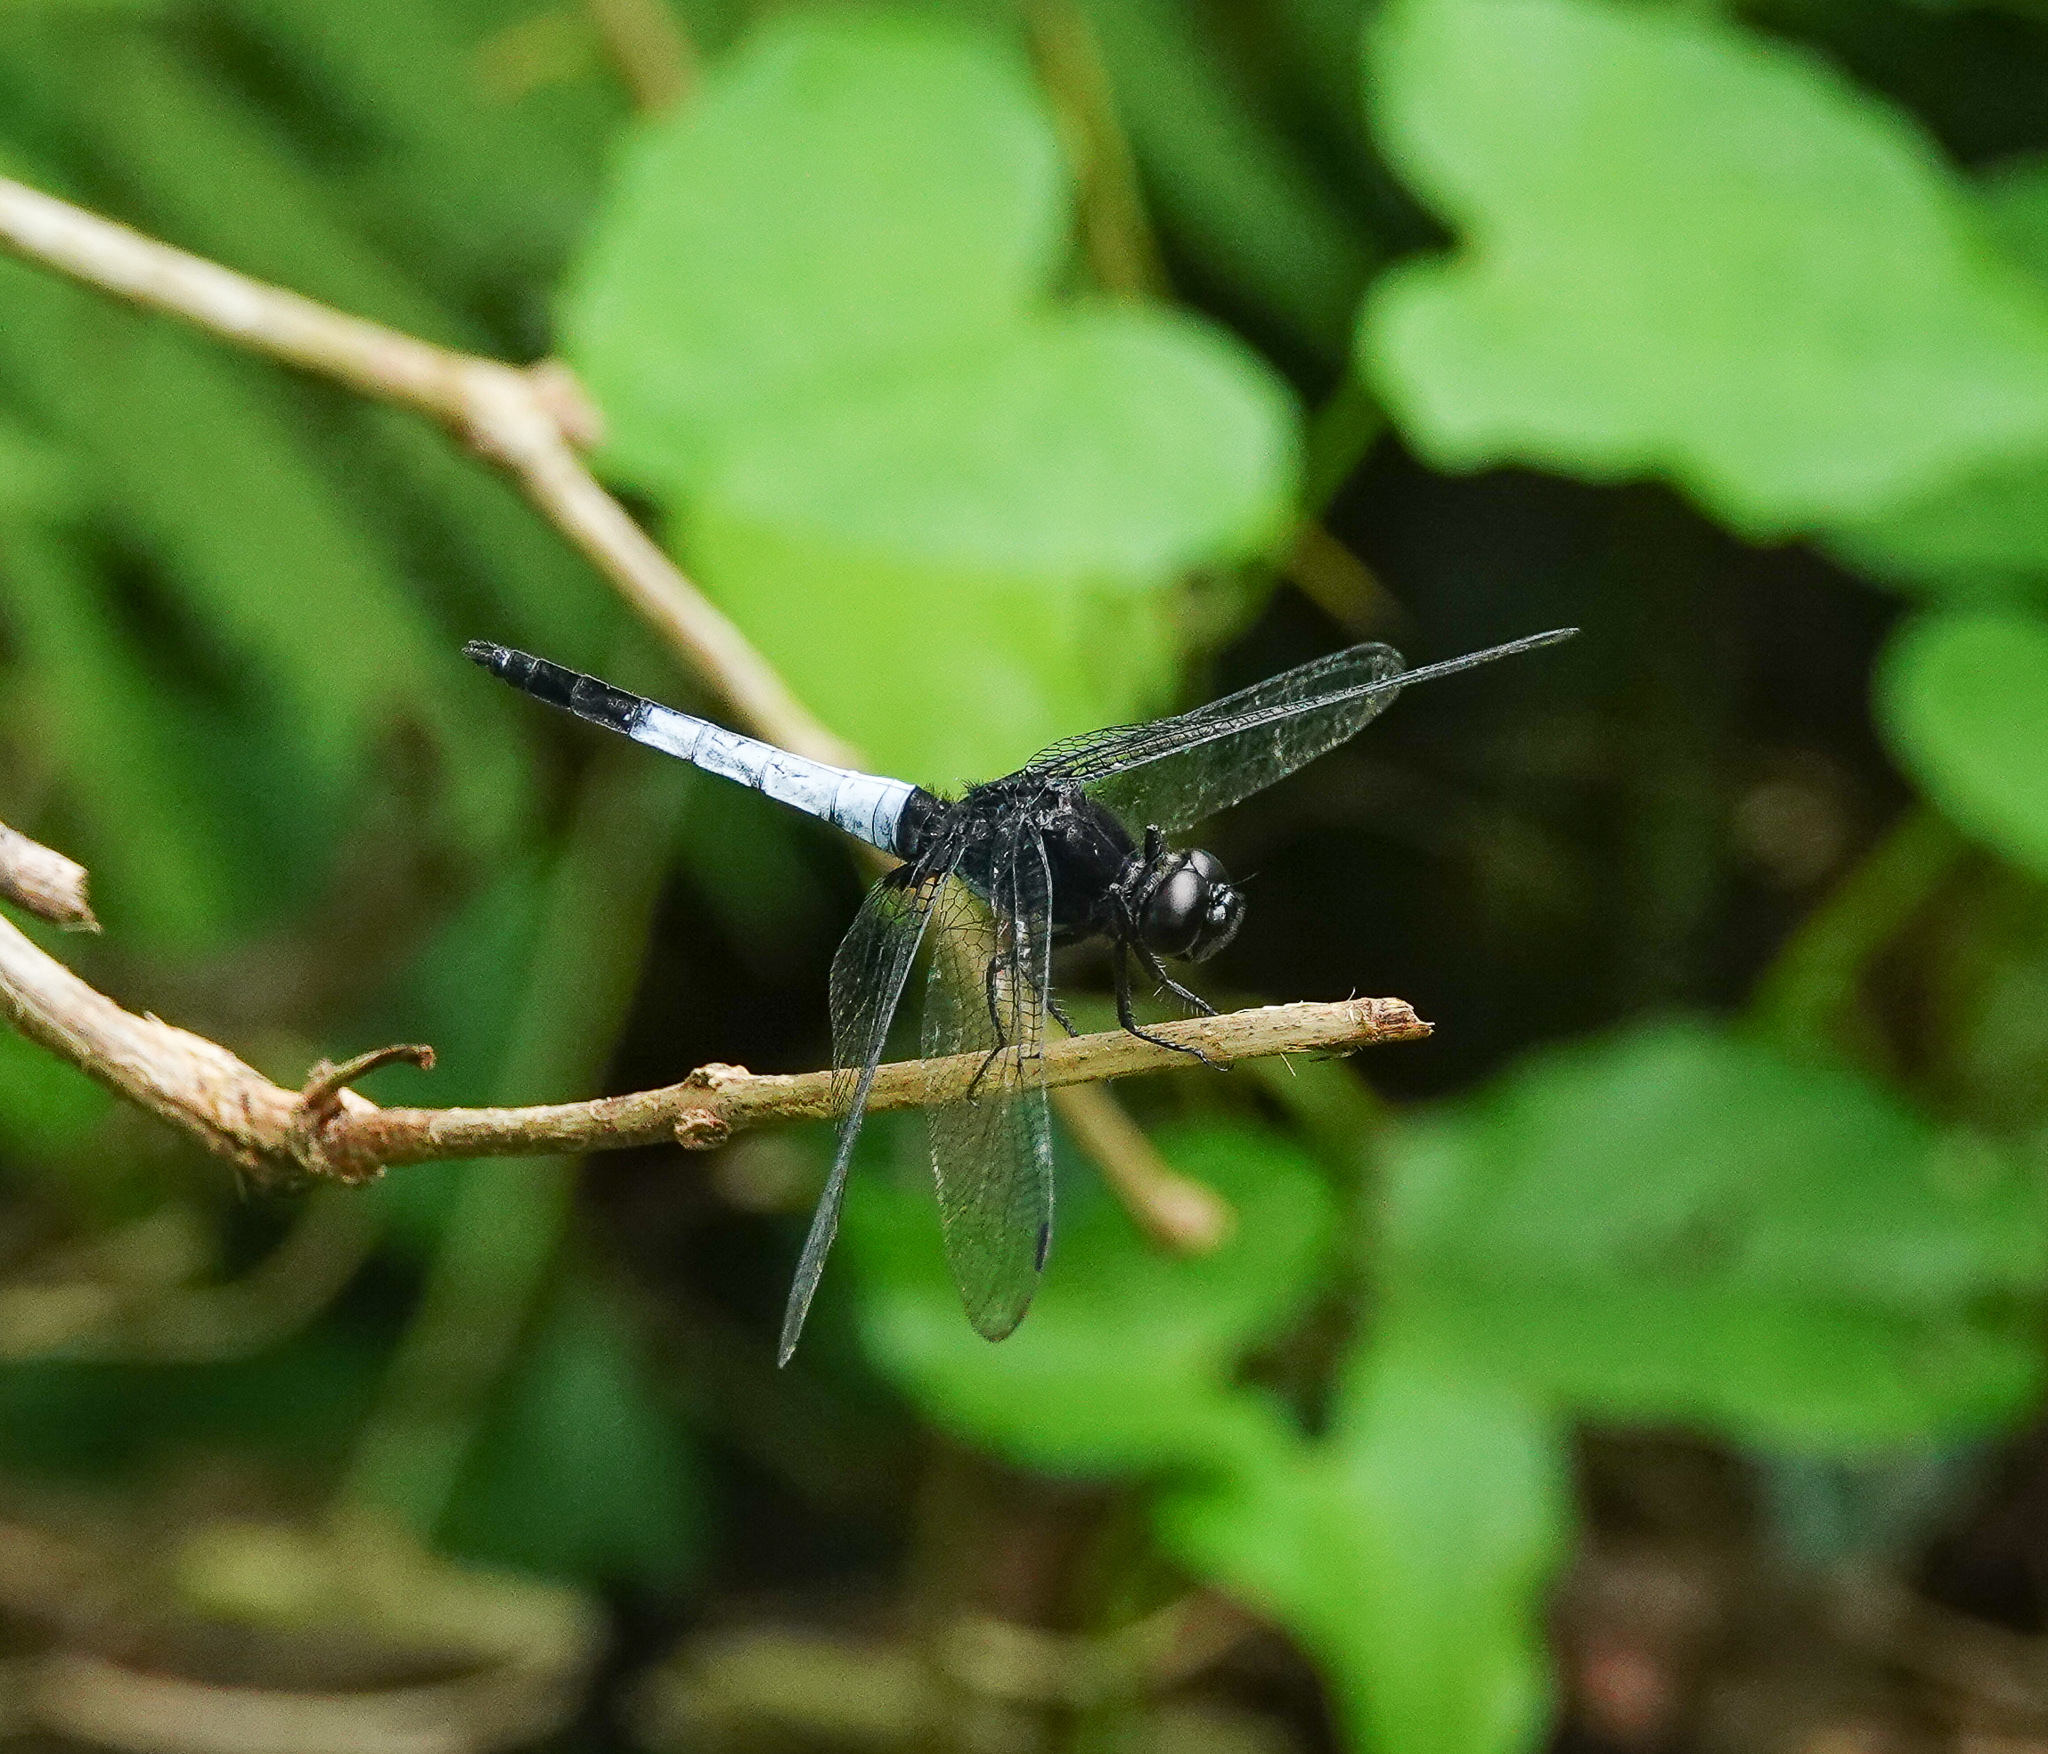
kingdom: Animalia
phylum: Arthropoda
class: Insecta
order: Odonata
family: Libellulidae
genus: Orthetrum
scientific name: Orthetrum triangulare
